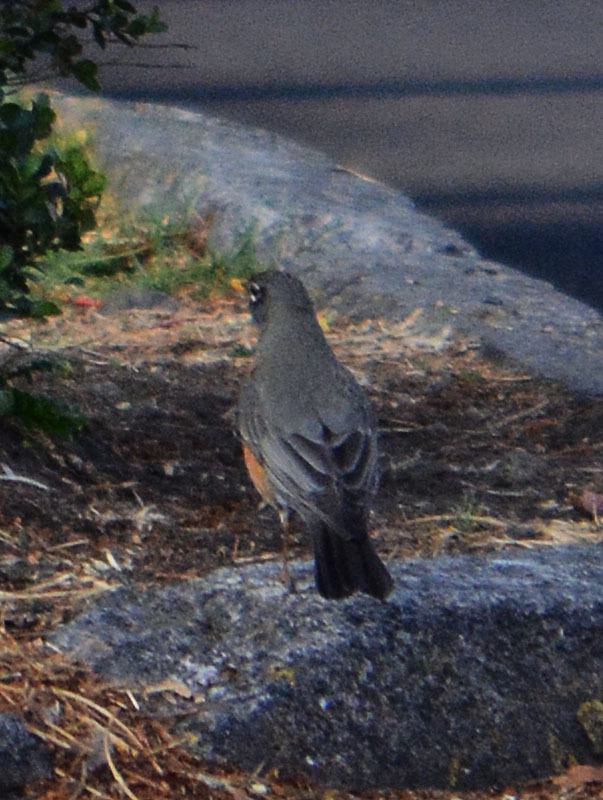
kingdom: Animalia
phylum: Chordata
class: Aves
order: Passeriformes
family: Turdidae
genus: Turdus
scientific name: Turdus migratorius
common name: American robin
